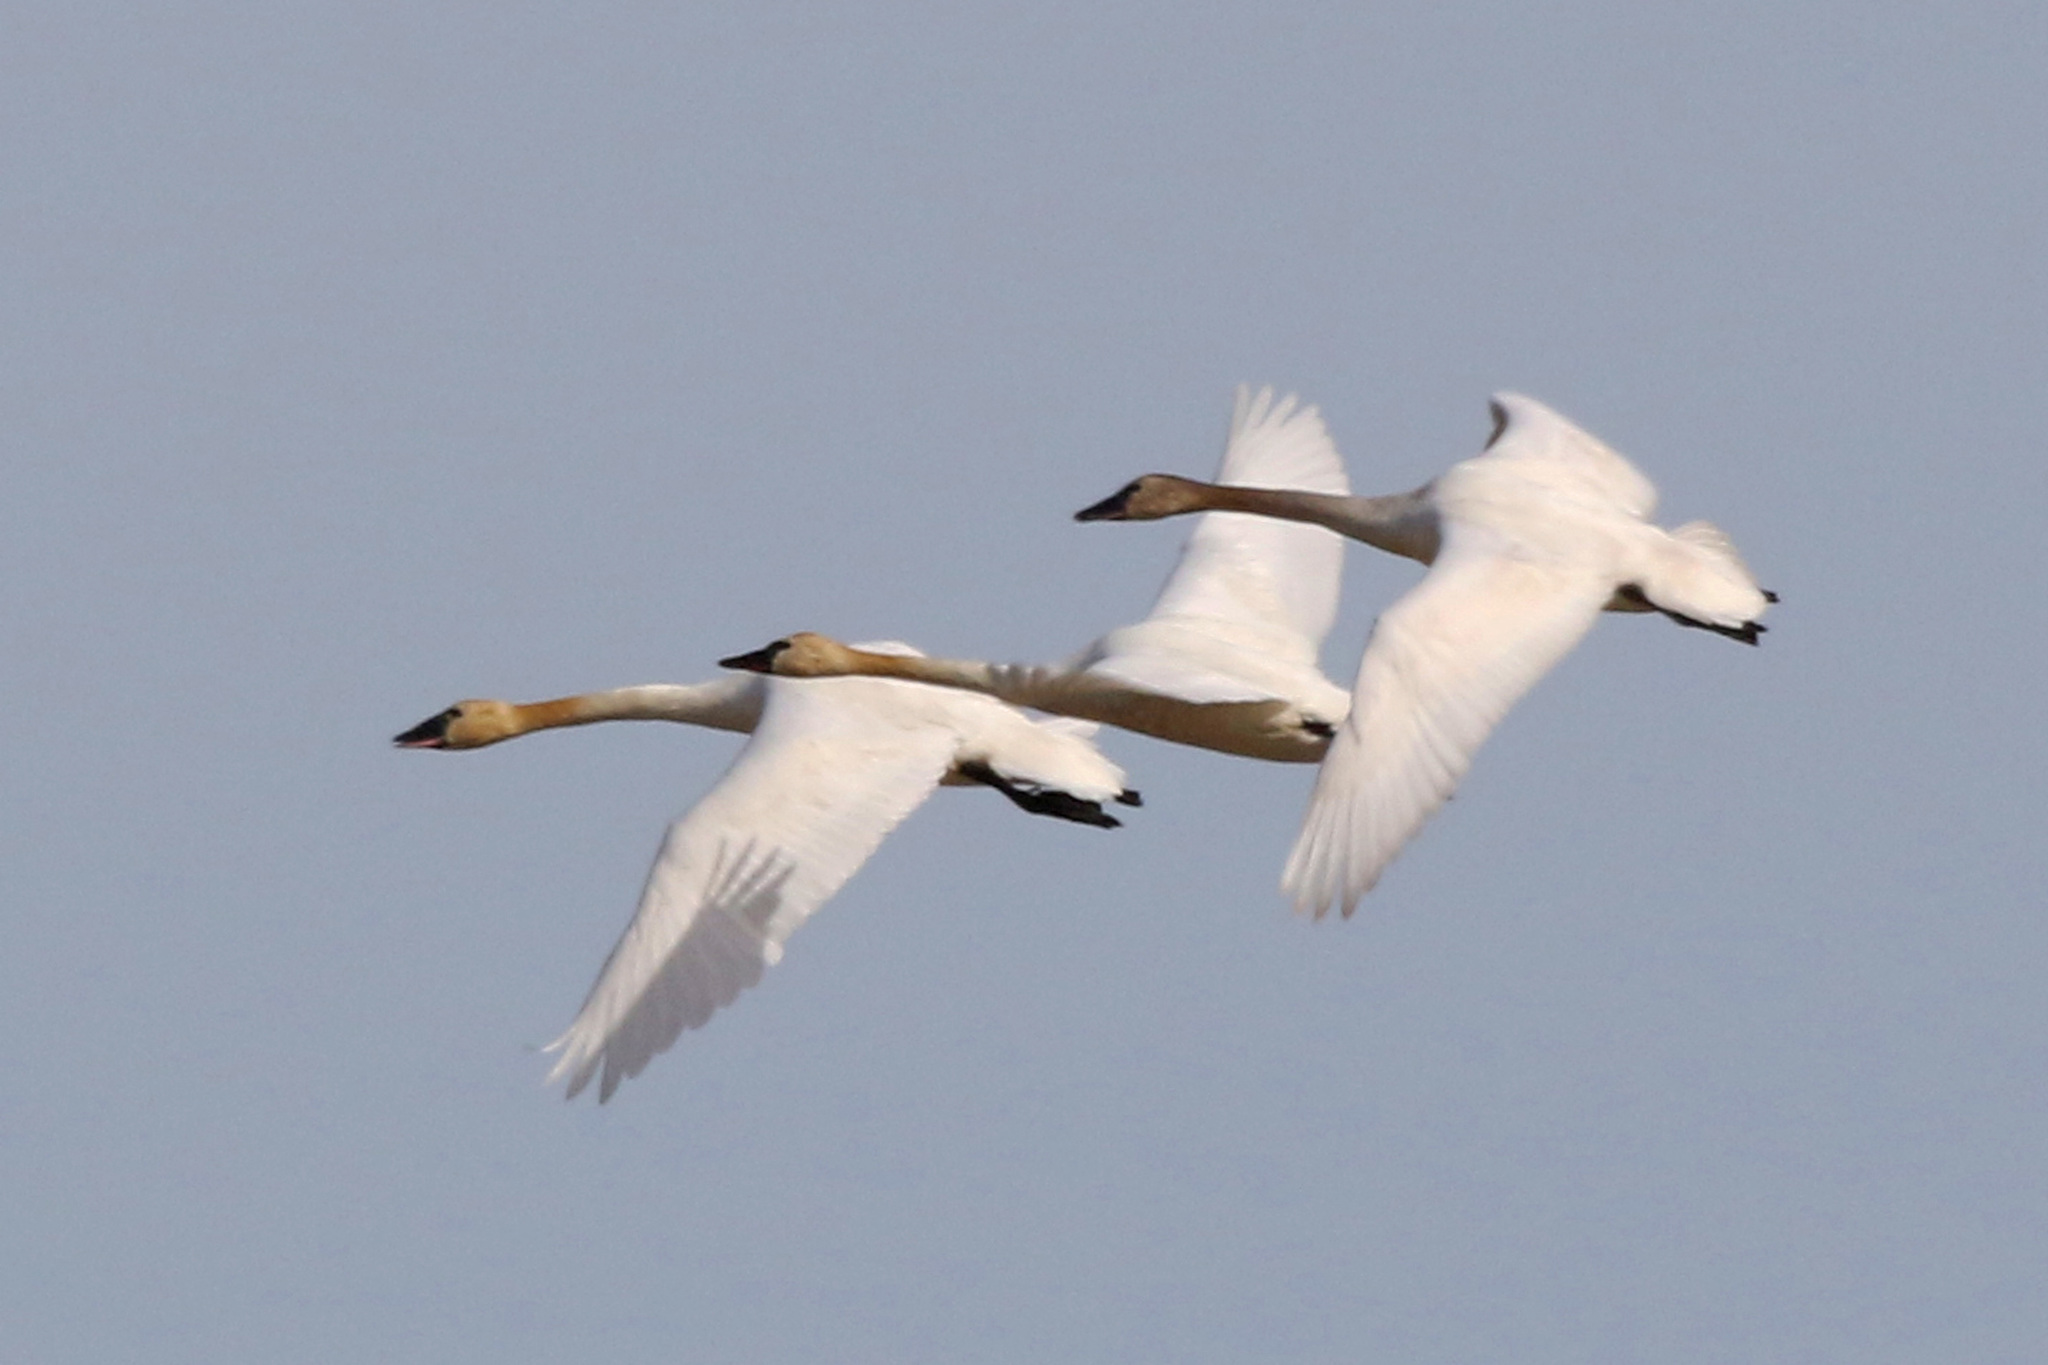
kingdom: Animalia
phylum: Chordata
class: Aves
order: Anseriformes
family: Anatidae
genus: Cygnus
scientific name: Cygnus columbianus
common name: Tundra swan
